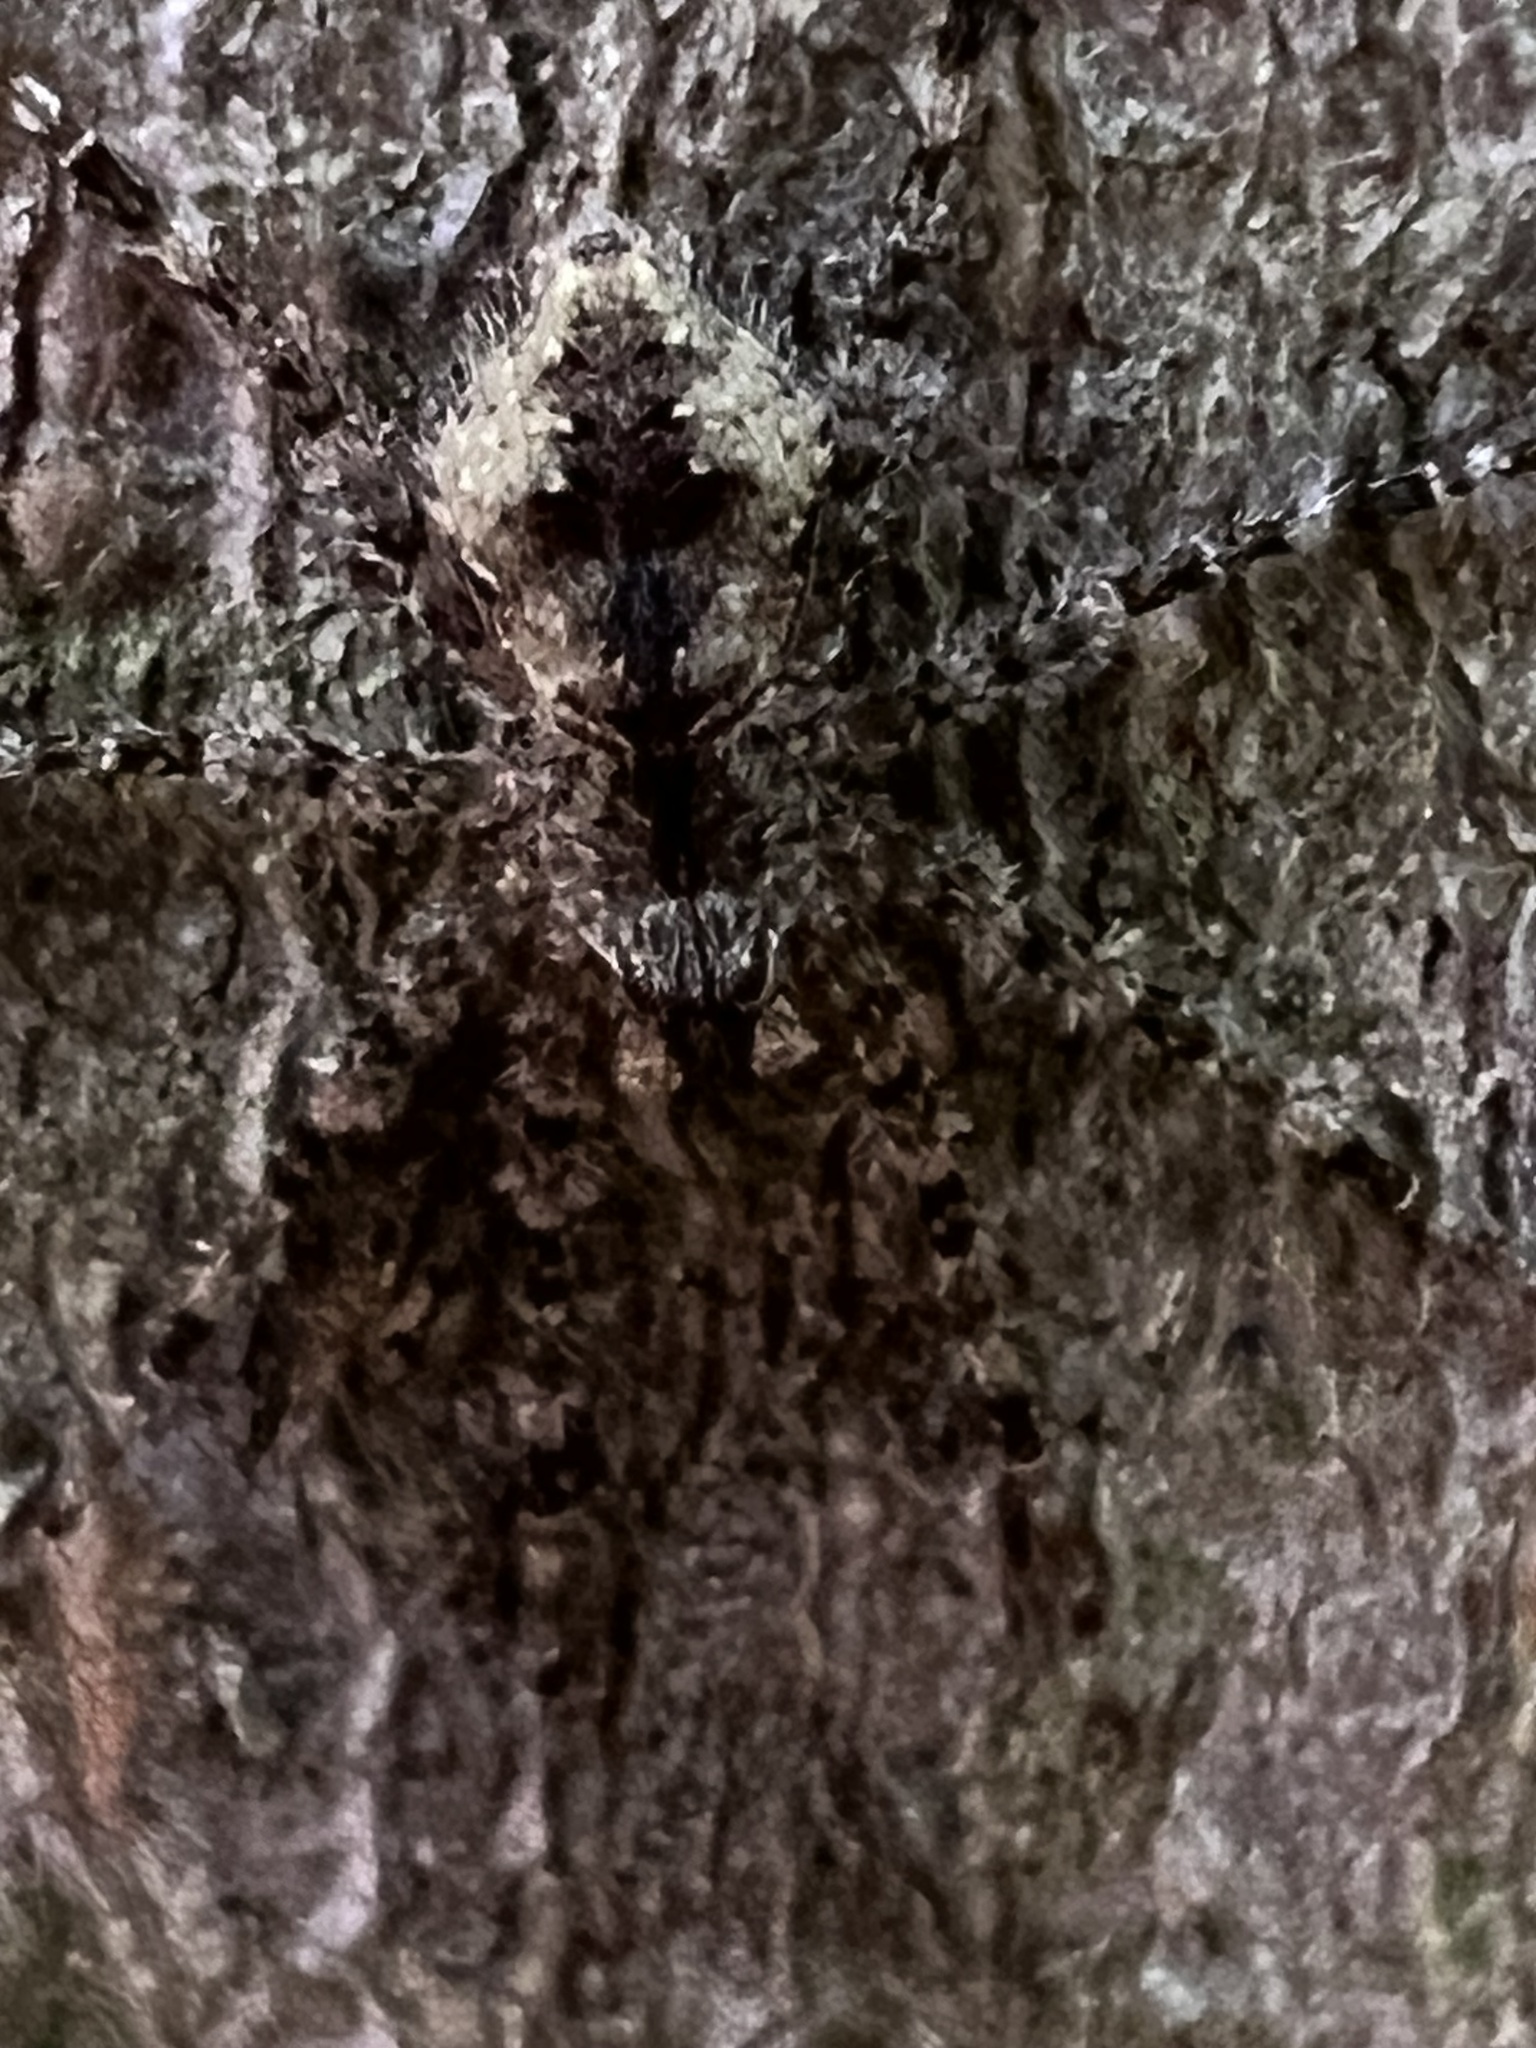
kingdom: Animalia
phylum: Arthropoda
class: Arachnida
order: Araneae
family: Pisauridae
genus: Dolomedes
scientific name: Dolomedes albineus
